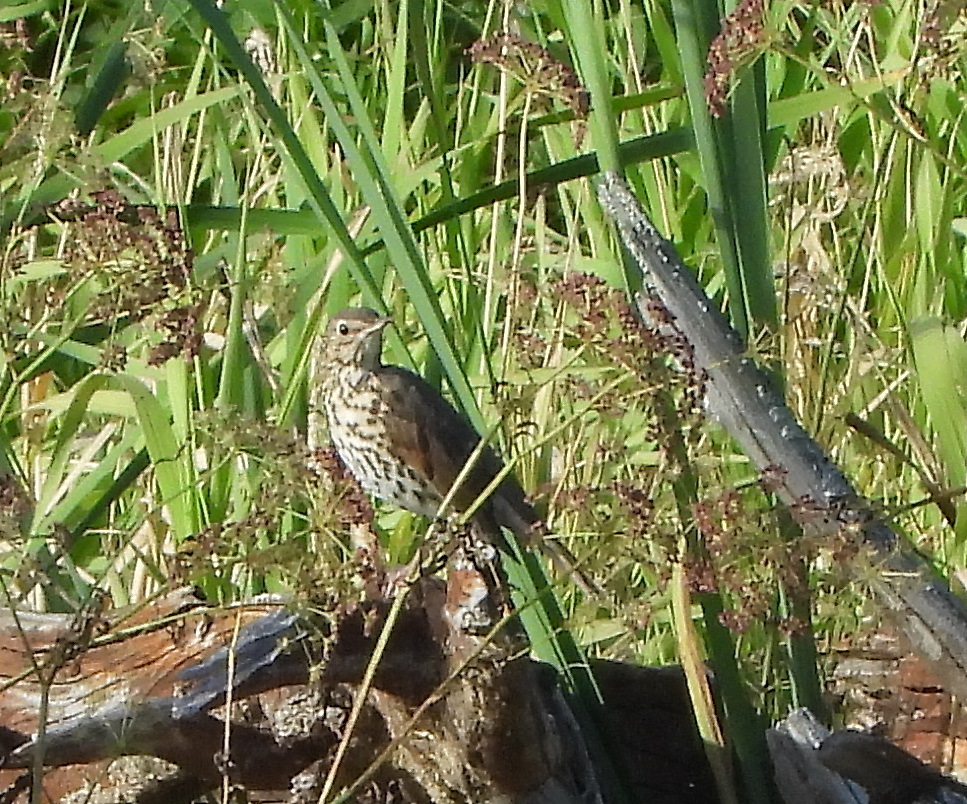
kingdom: Animalia
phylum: Chordata
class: Aves
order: Passeriformes
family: Turdidae
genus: Turdus
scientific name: Turdus philomelos
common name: Song thrush
